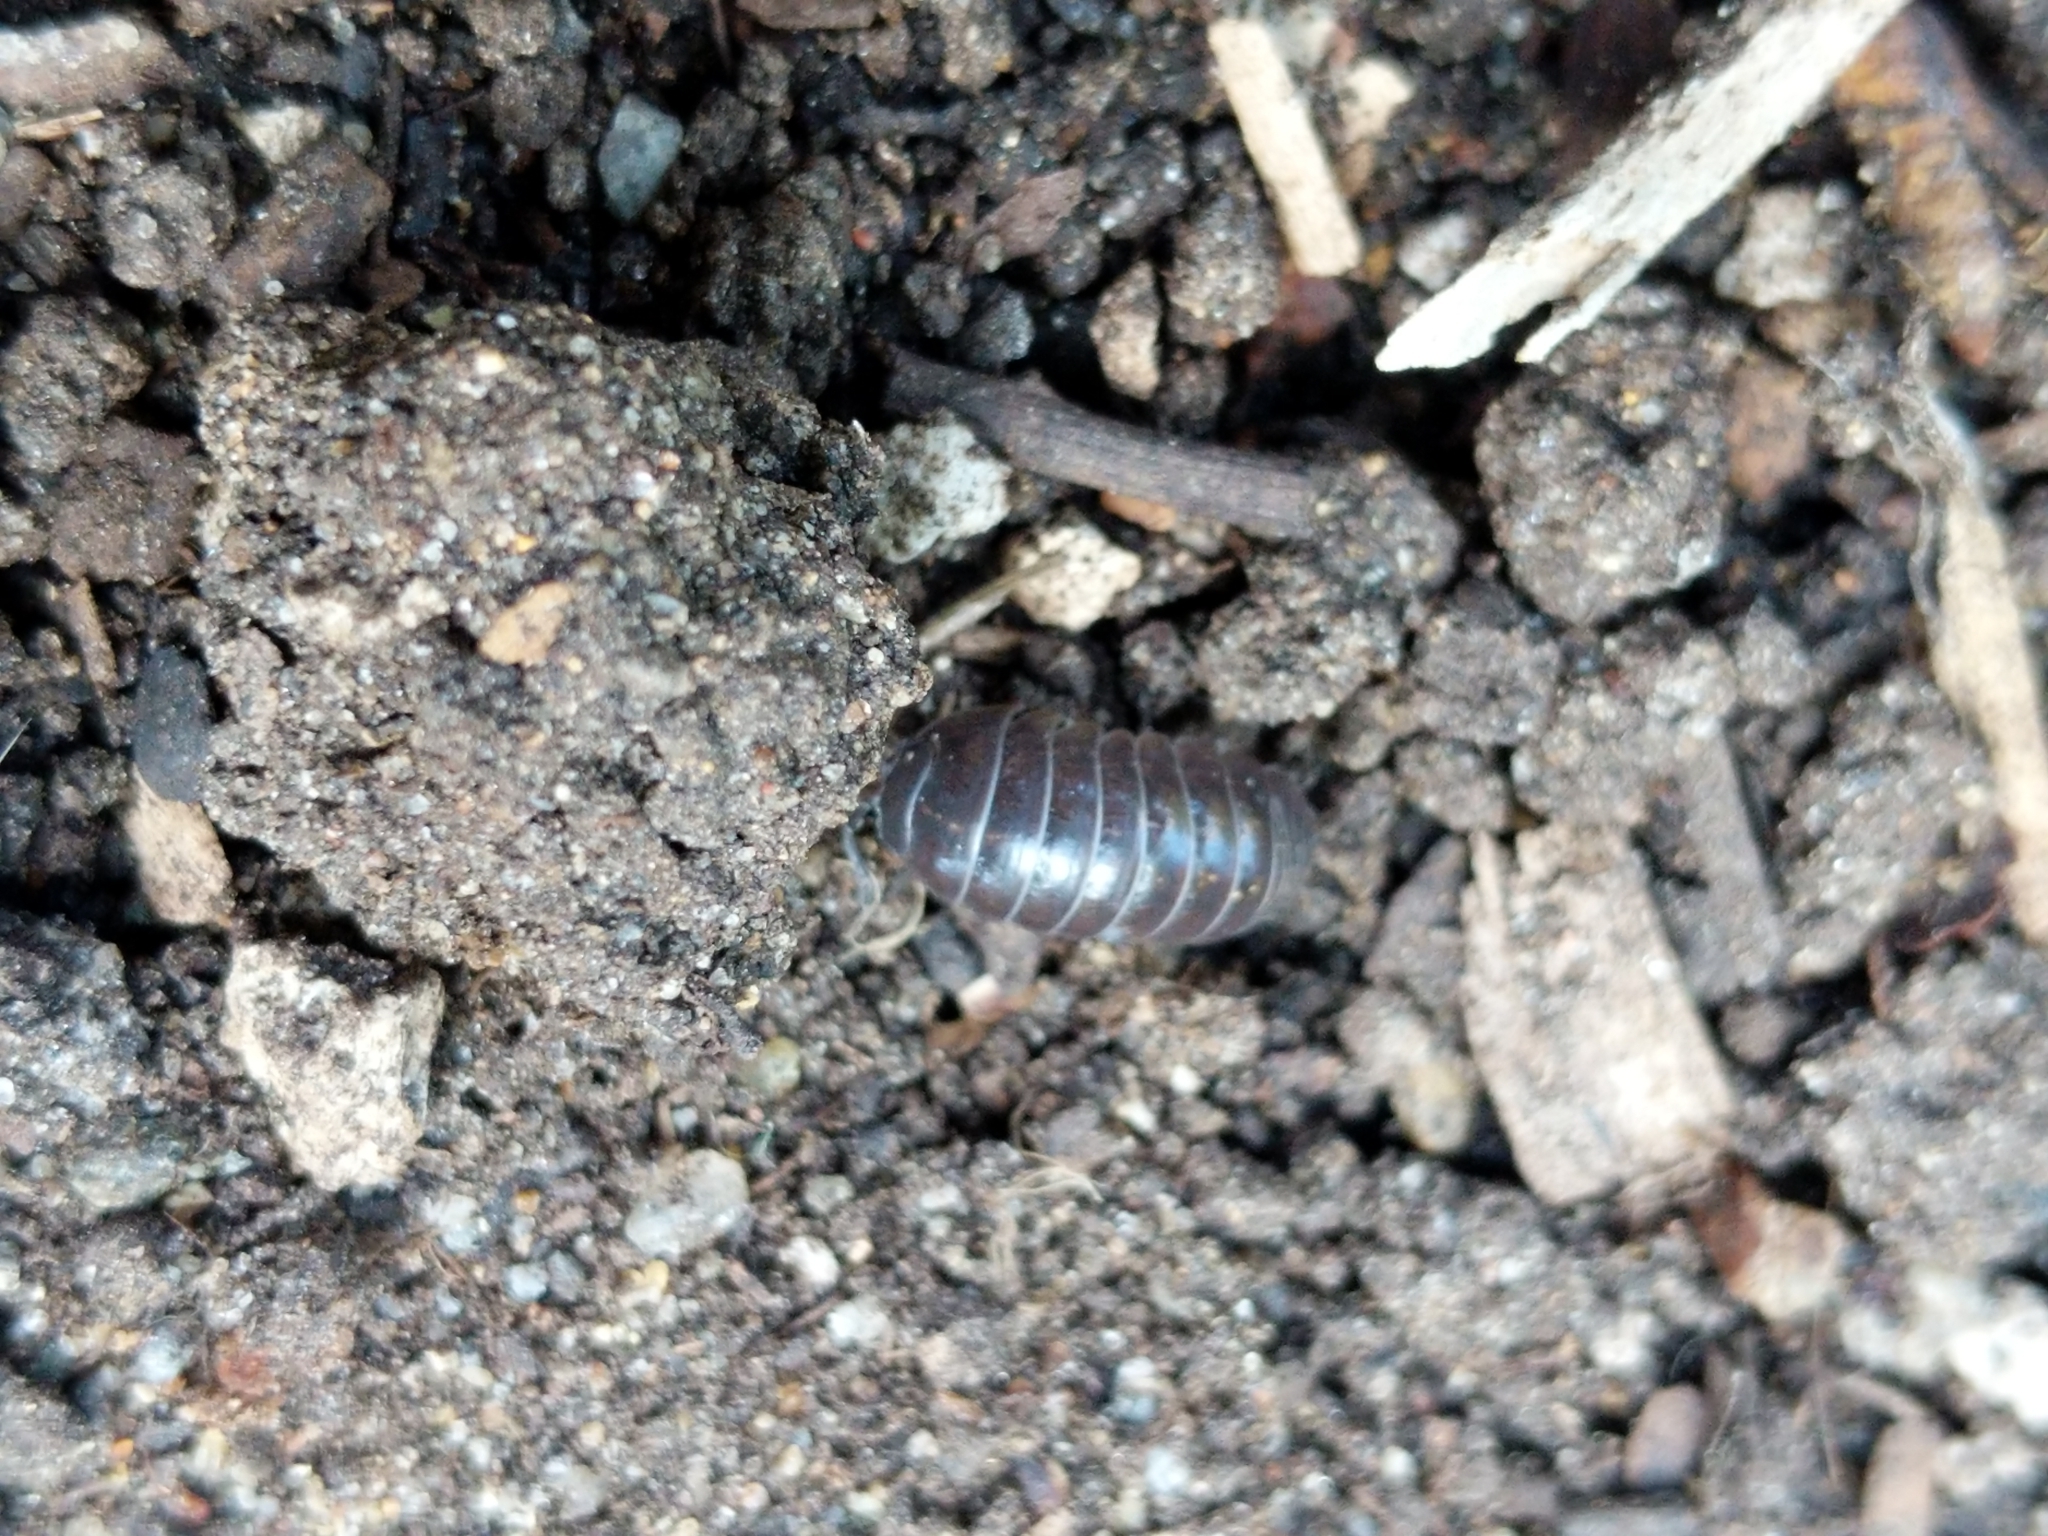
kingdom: Animalia
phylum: Arthropoda
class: Malacostraca
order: Isopoda
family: Armadillidiidae
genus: Armadillidium
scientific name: Armadillidium vulgare
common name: Common pill woodlouse
